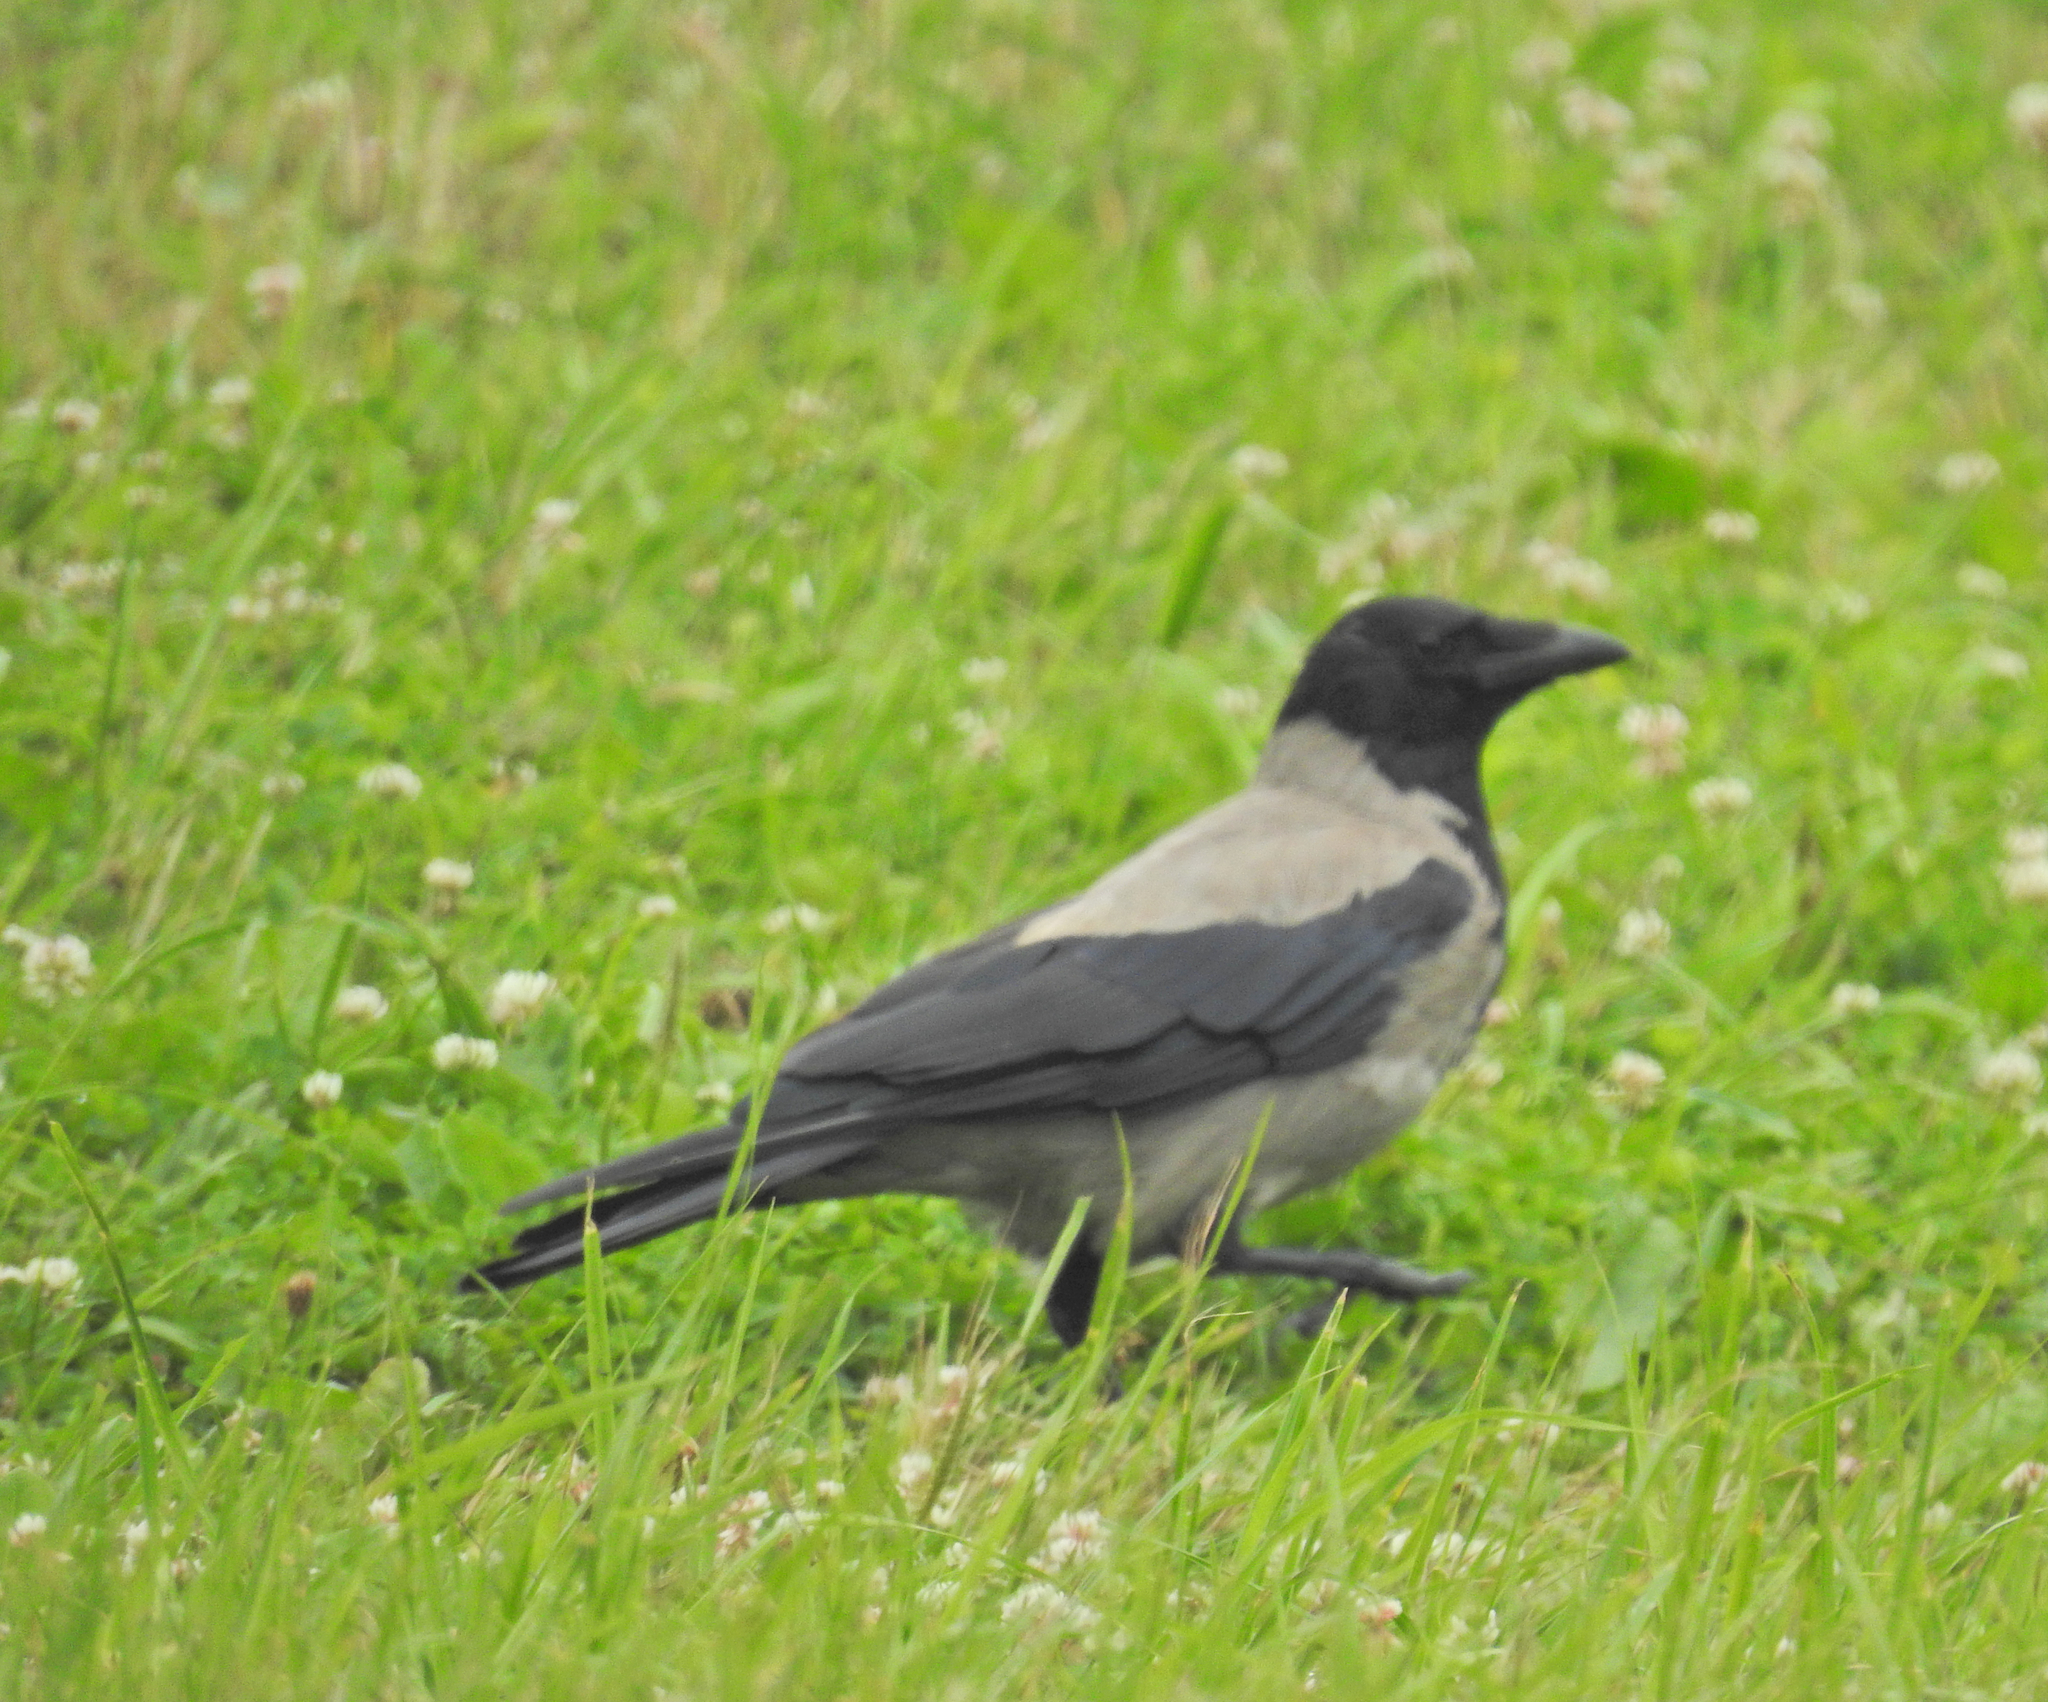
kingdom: Animalia
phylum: Chordata
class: Aves
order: Passeriformes
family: Corvidae
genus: Corvus
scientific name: Corvus cornix
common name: Hooded crow
